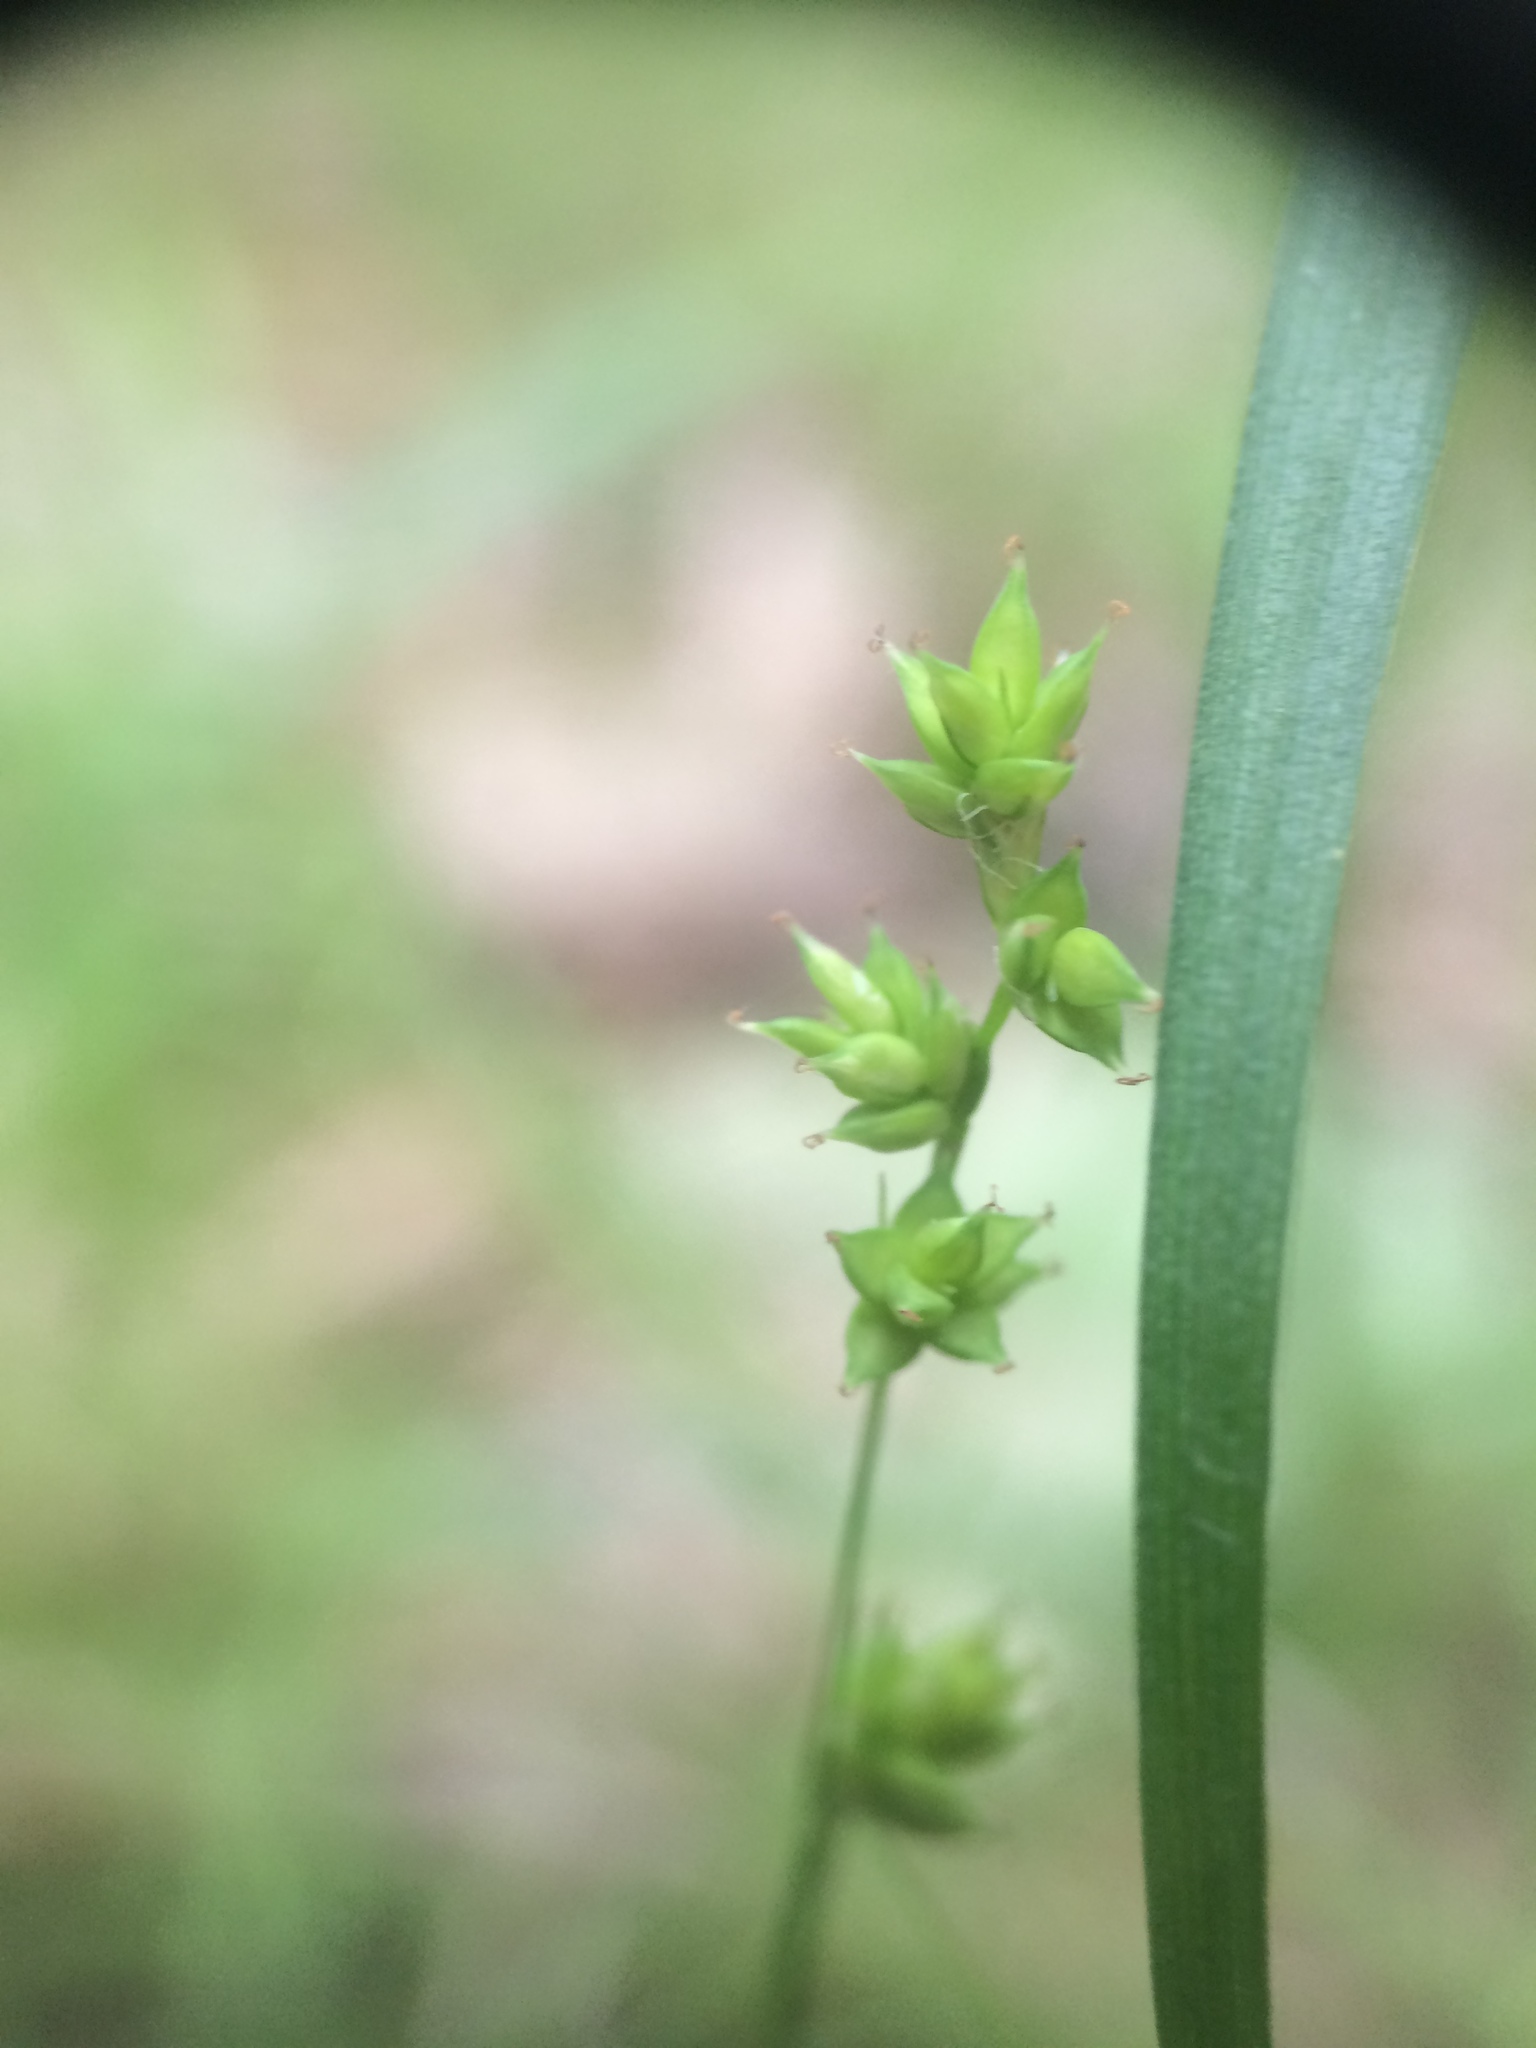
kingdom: Plantae
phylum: Tracheophyta
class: Liliopsida
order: Poales
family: Cyperaceae
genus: Carex
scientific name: Carex brunnescens
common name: Brown sedge
